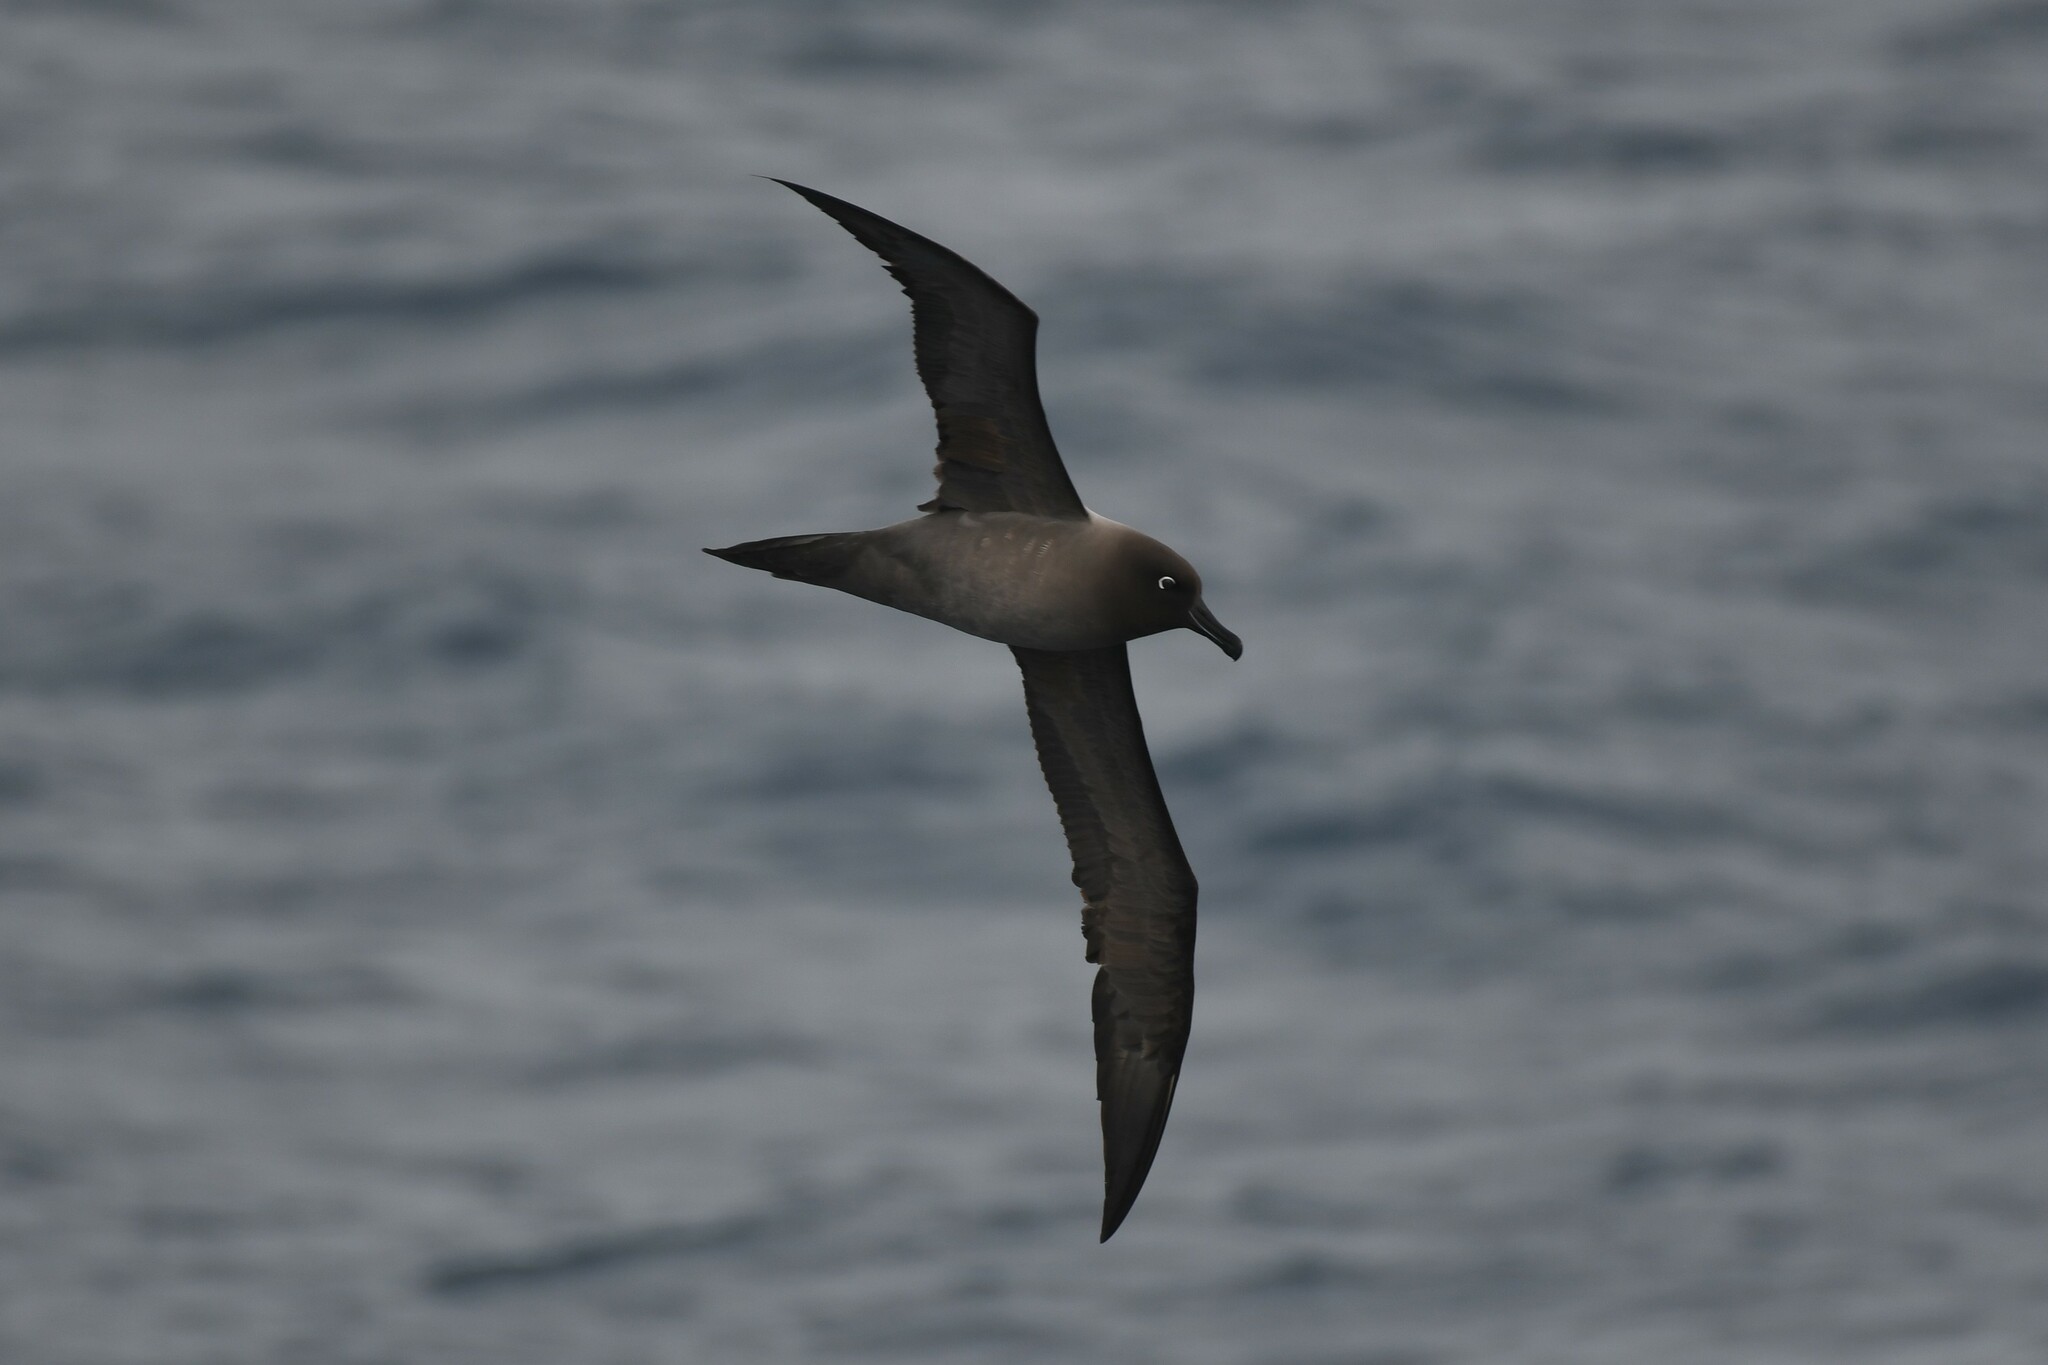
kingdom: Animalia
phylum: Chordata
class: Aves
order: Procellariiformes
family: Diomedeidae
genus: Phoebetria
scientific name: Phoebetria palpebrata
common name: Light-mantled albatross
